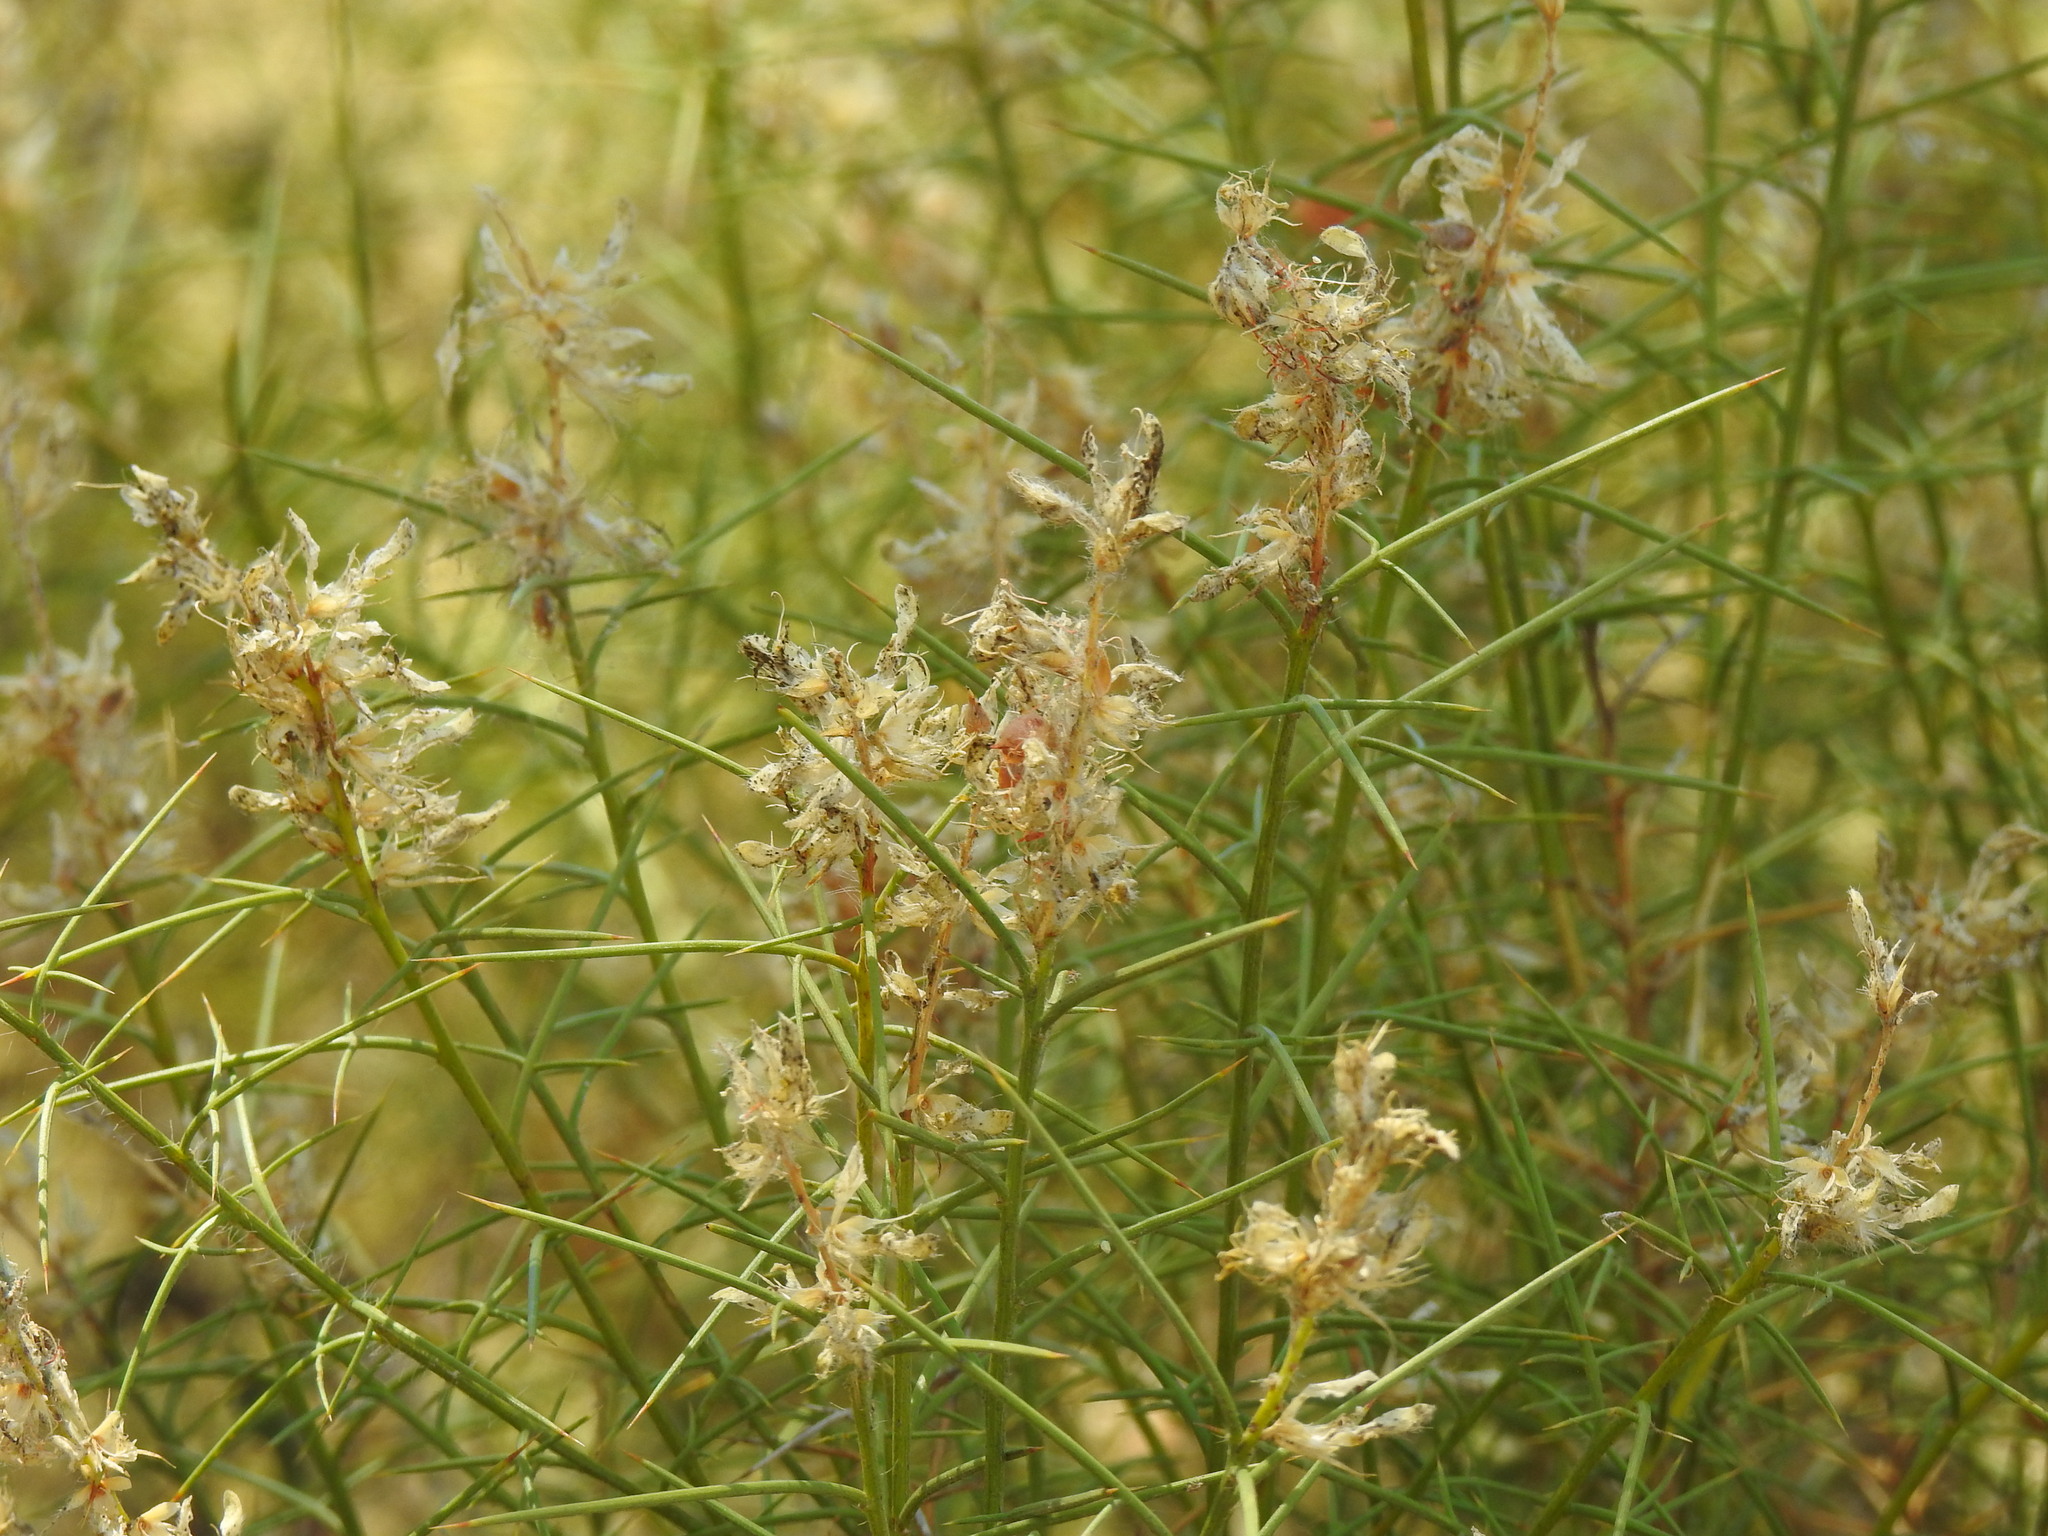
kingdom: Plantae
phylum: Tracheophyta
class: Magnoliopsida
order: Fabales
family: Fabaceae
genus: Genista
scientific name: Genista hirsuta
